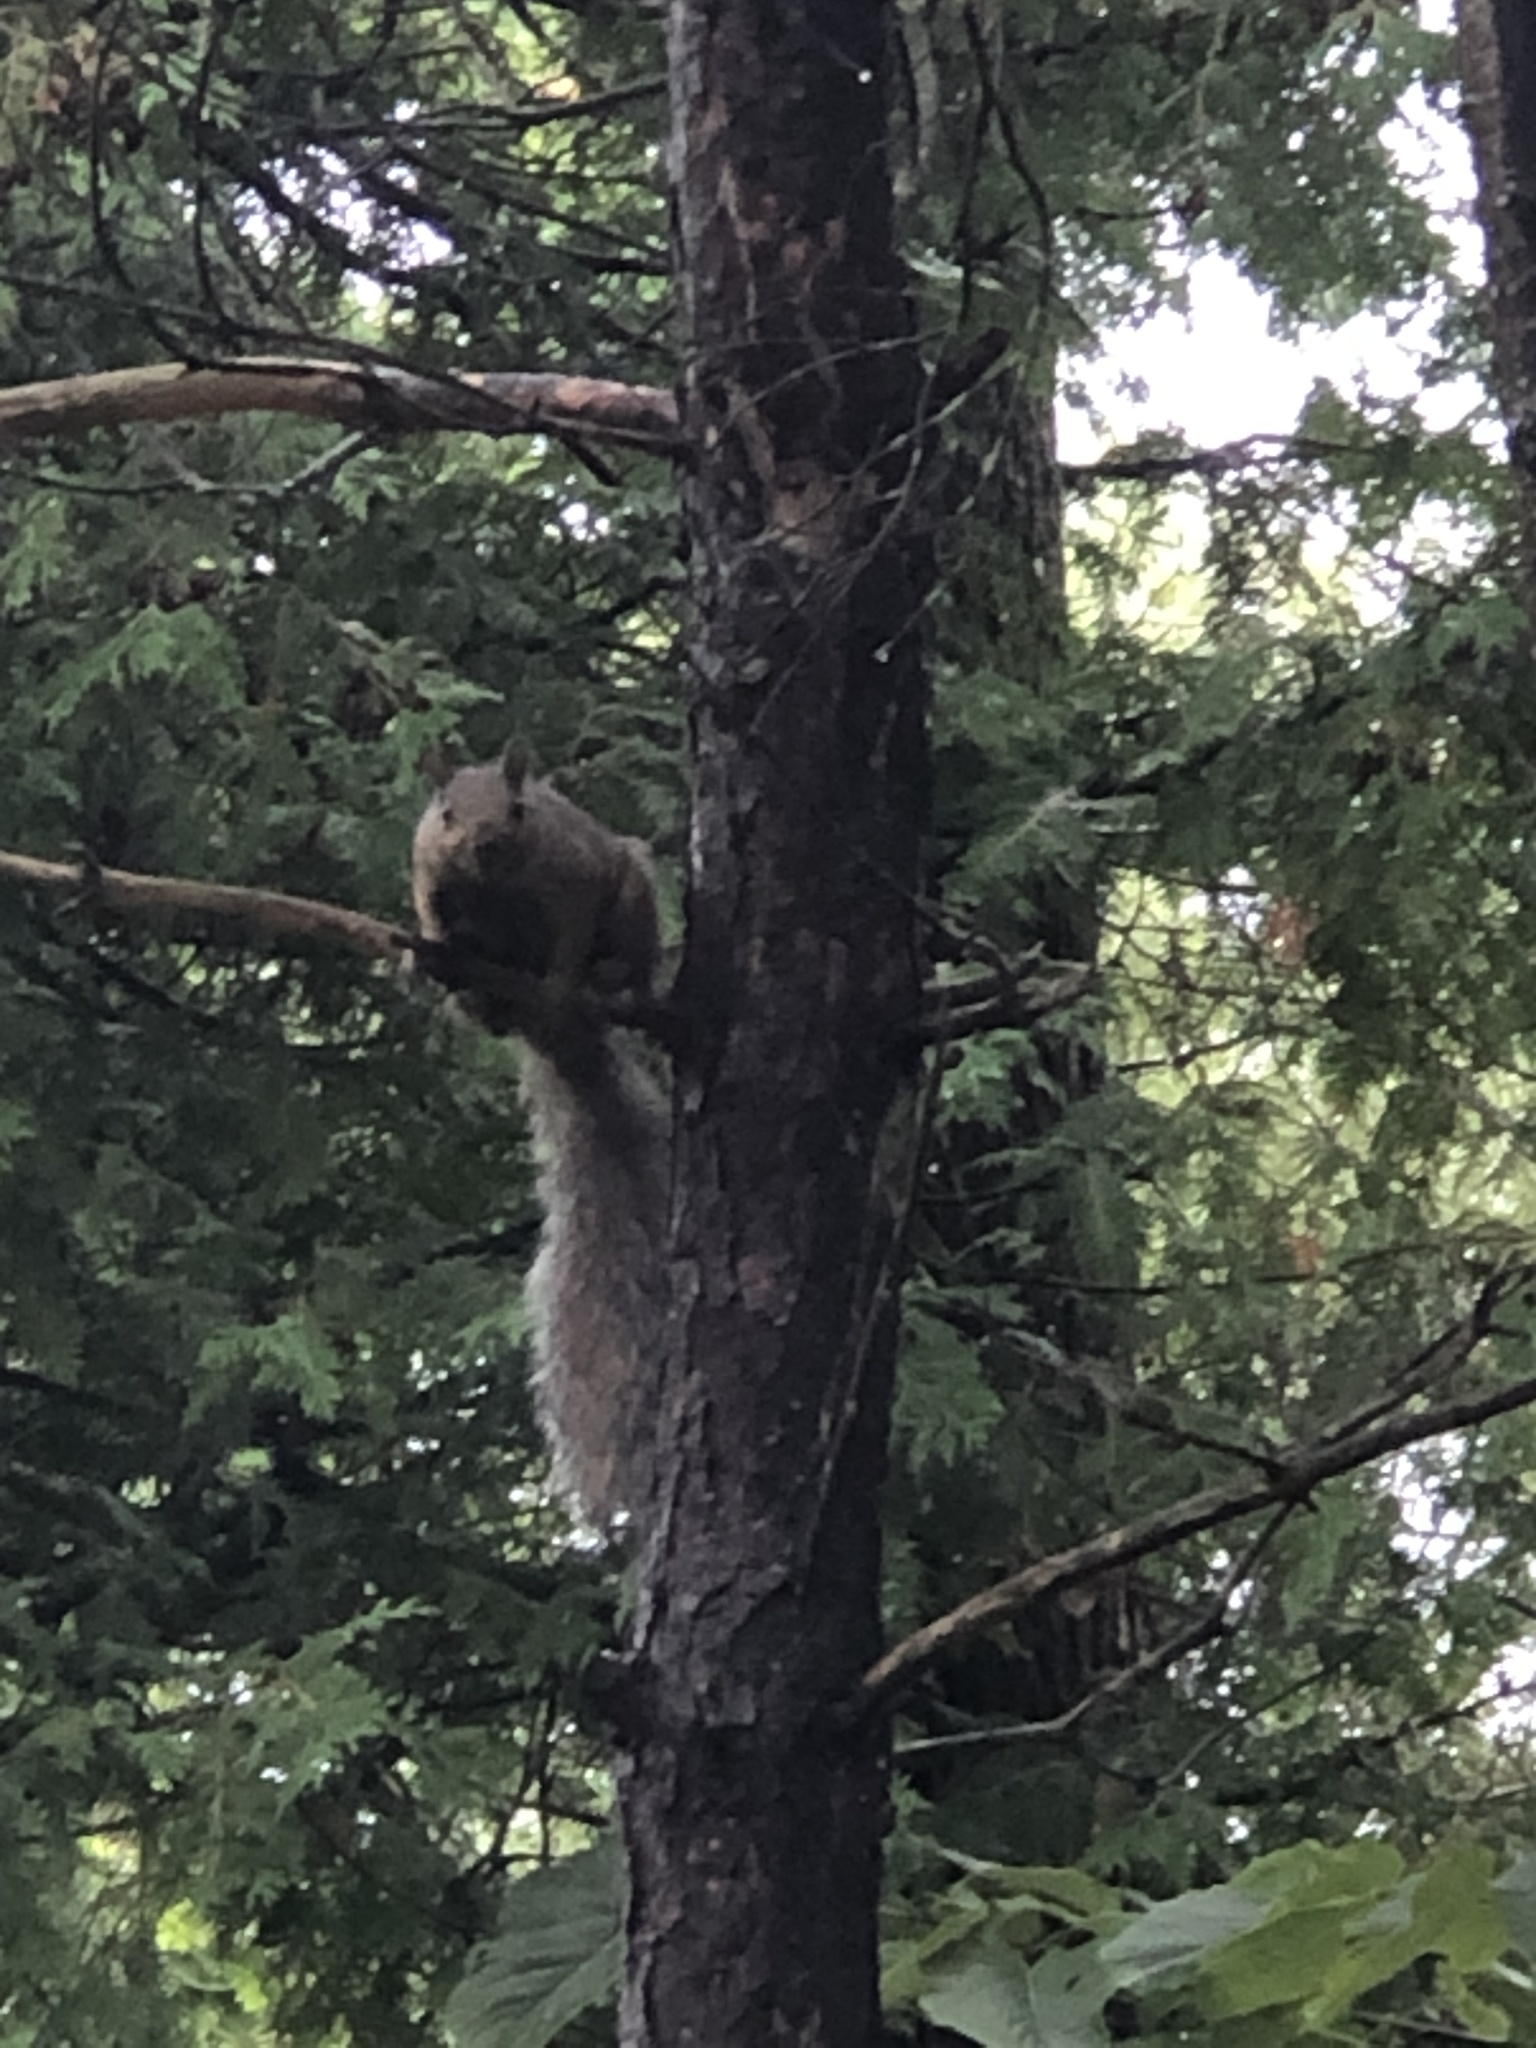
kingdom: Animalia
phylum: Chordata
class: Mammalia
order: Rodentia
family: Sciuridae
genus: Sciurus
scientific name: Sciurus carolinensis
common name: Eastern gray squirrel
